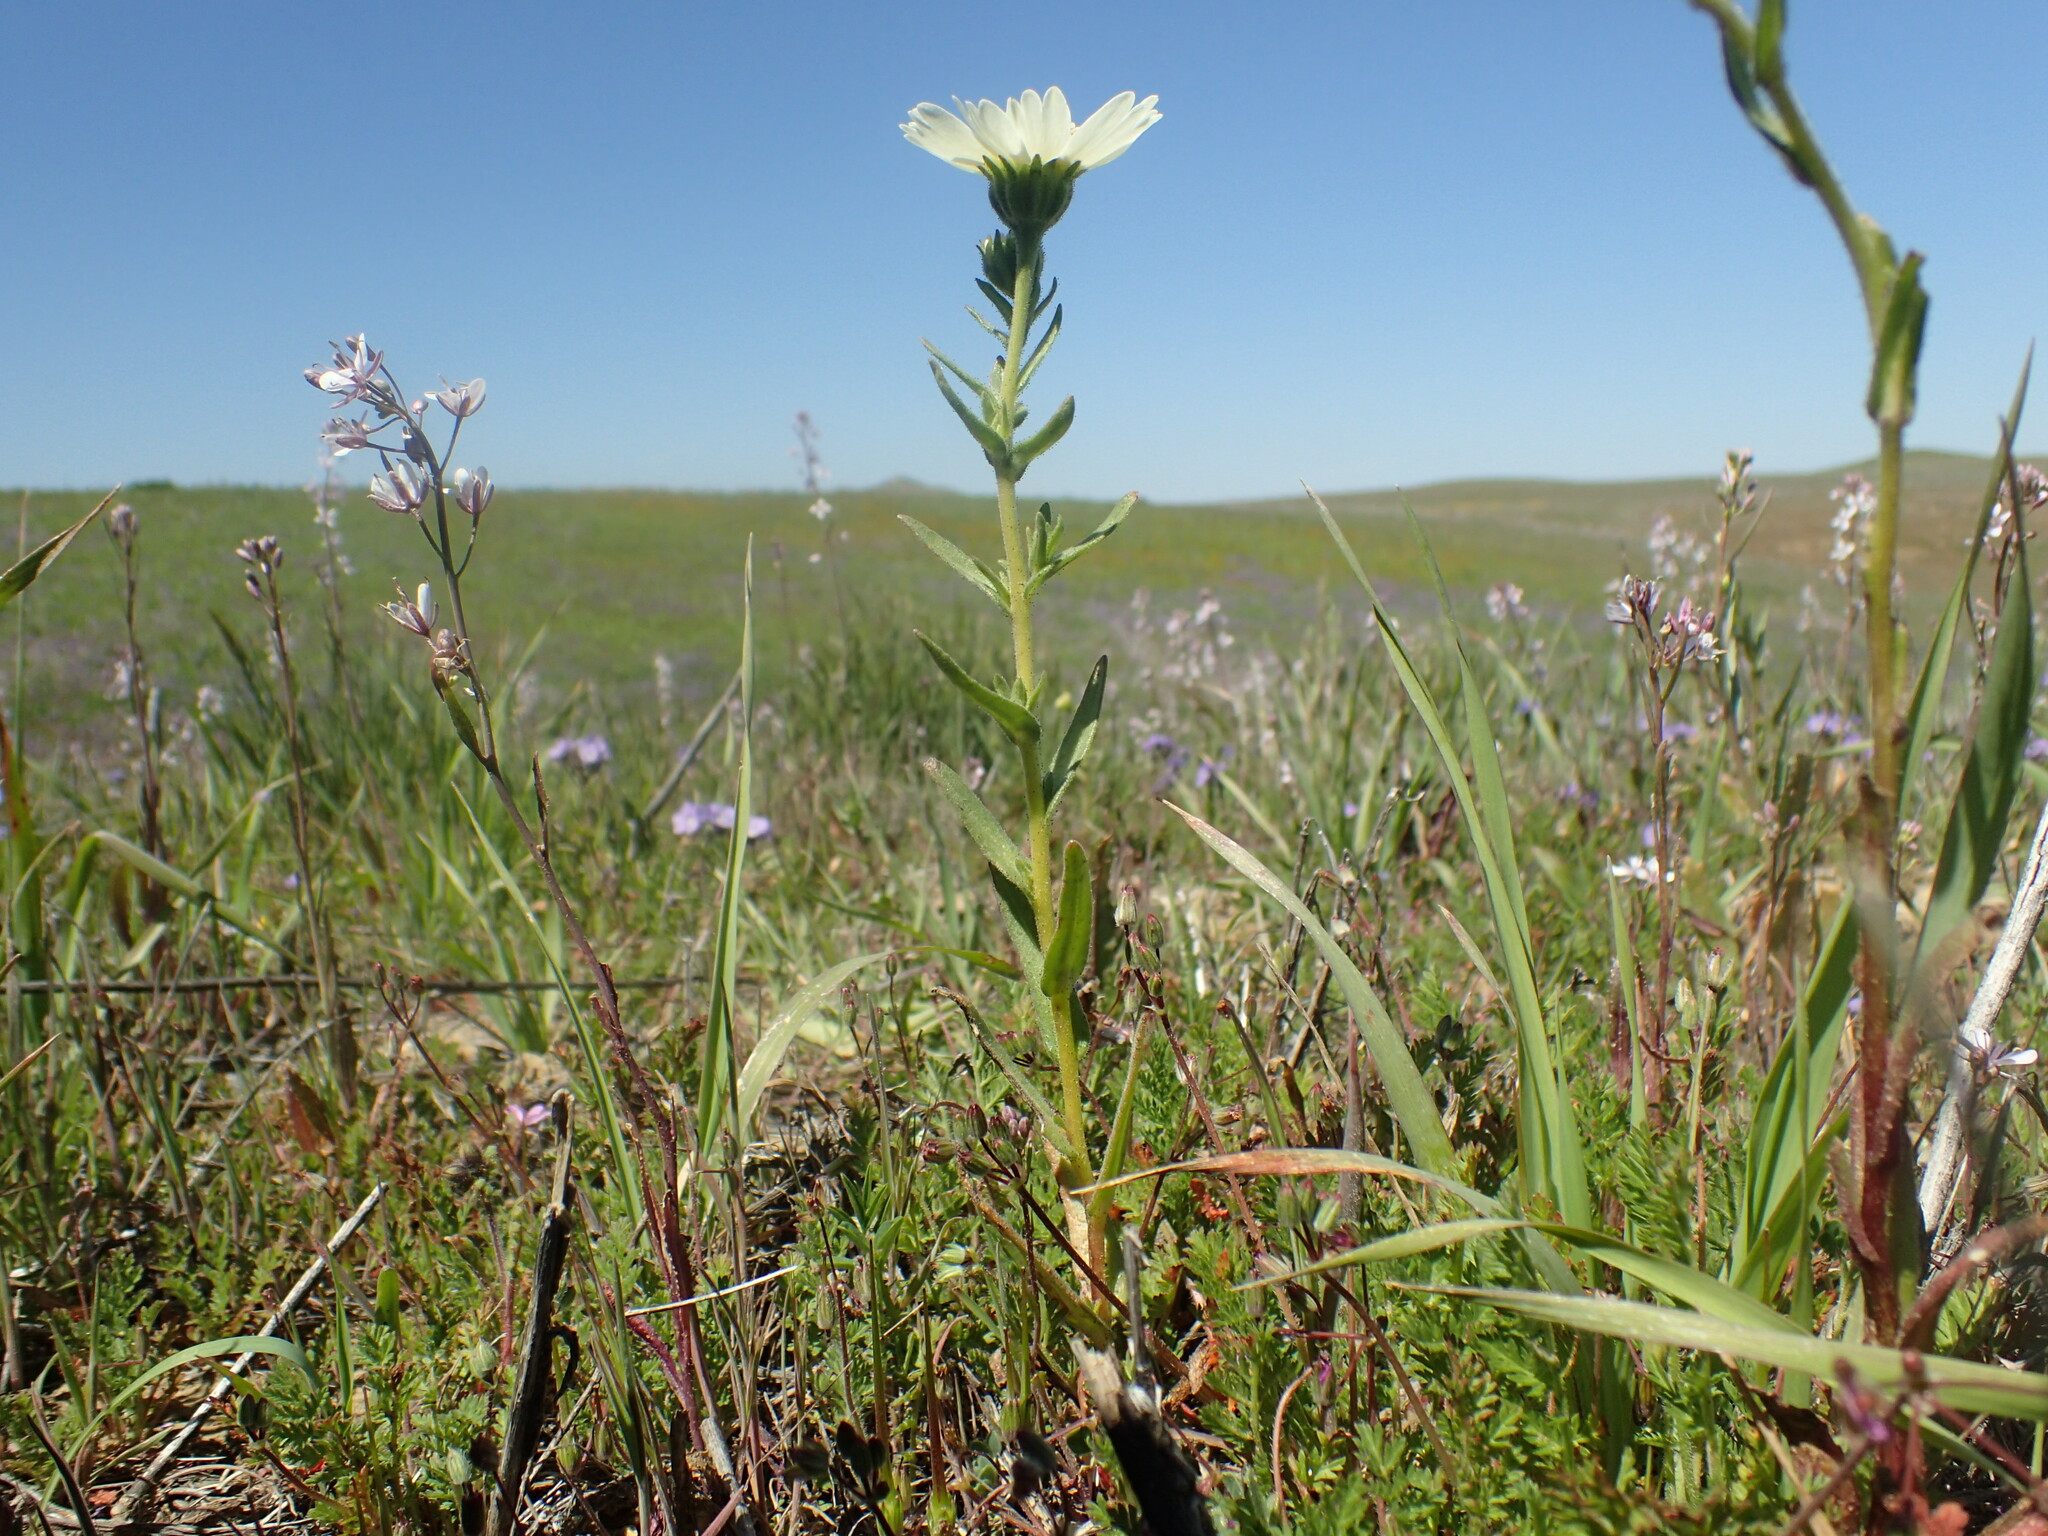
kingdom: Plantae
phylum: Tracheophyta
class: Magnoliopsida
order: Asterales
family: Asteraceae
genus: Layia
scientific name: Layia heterotricha
